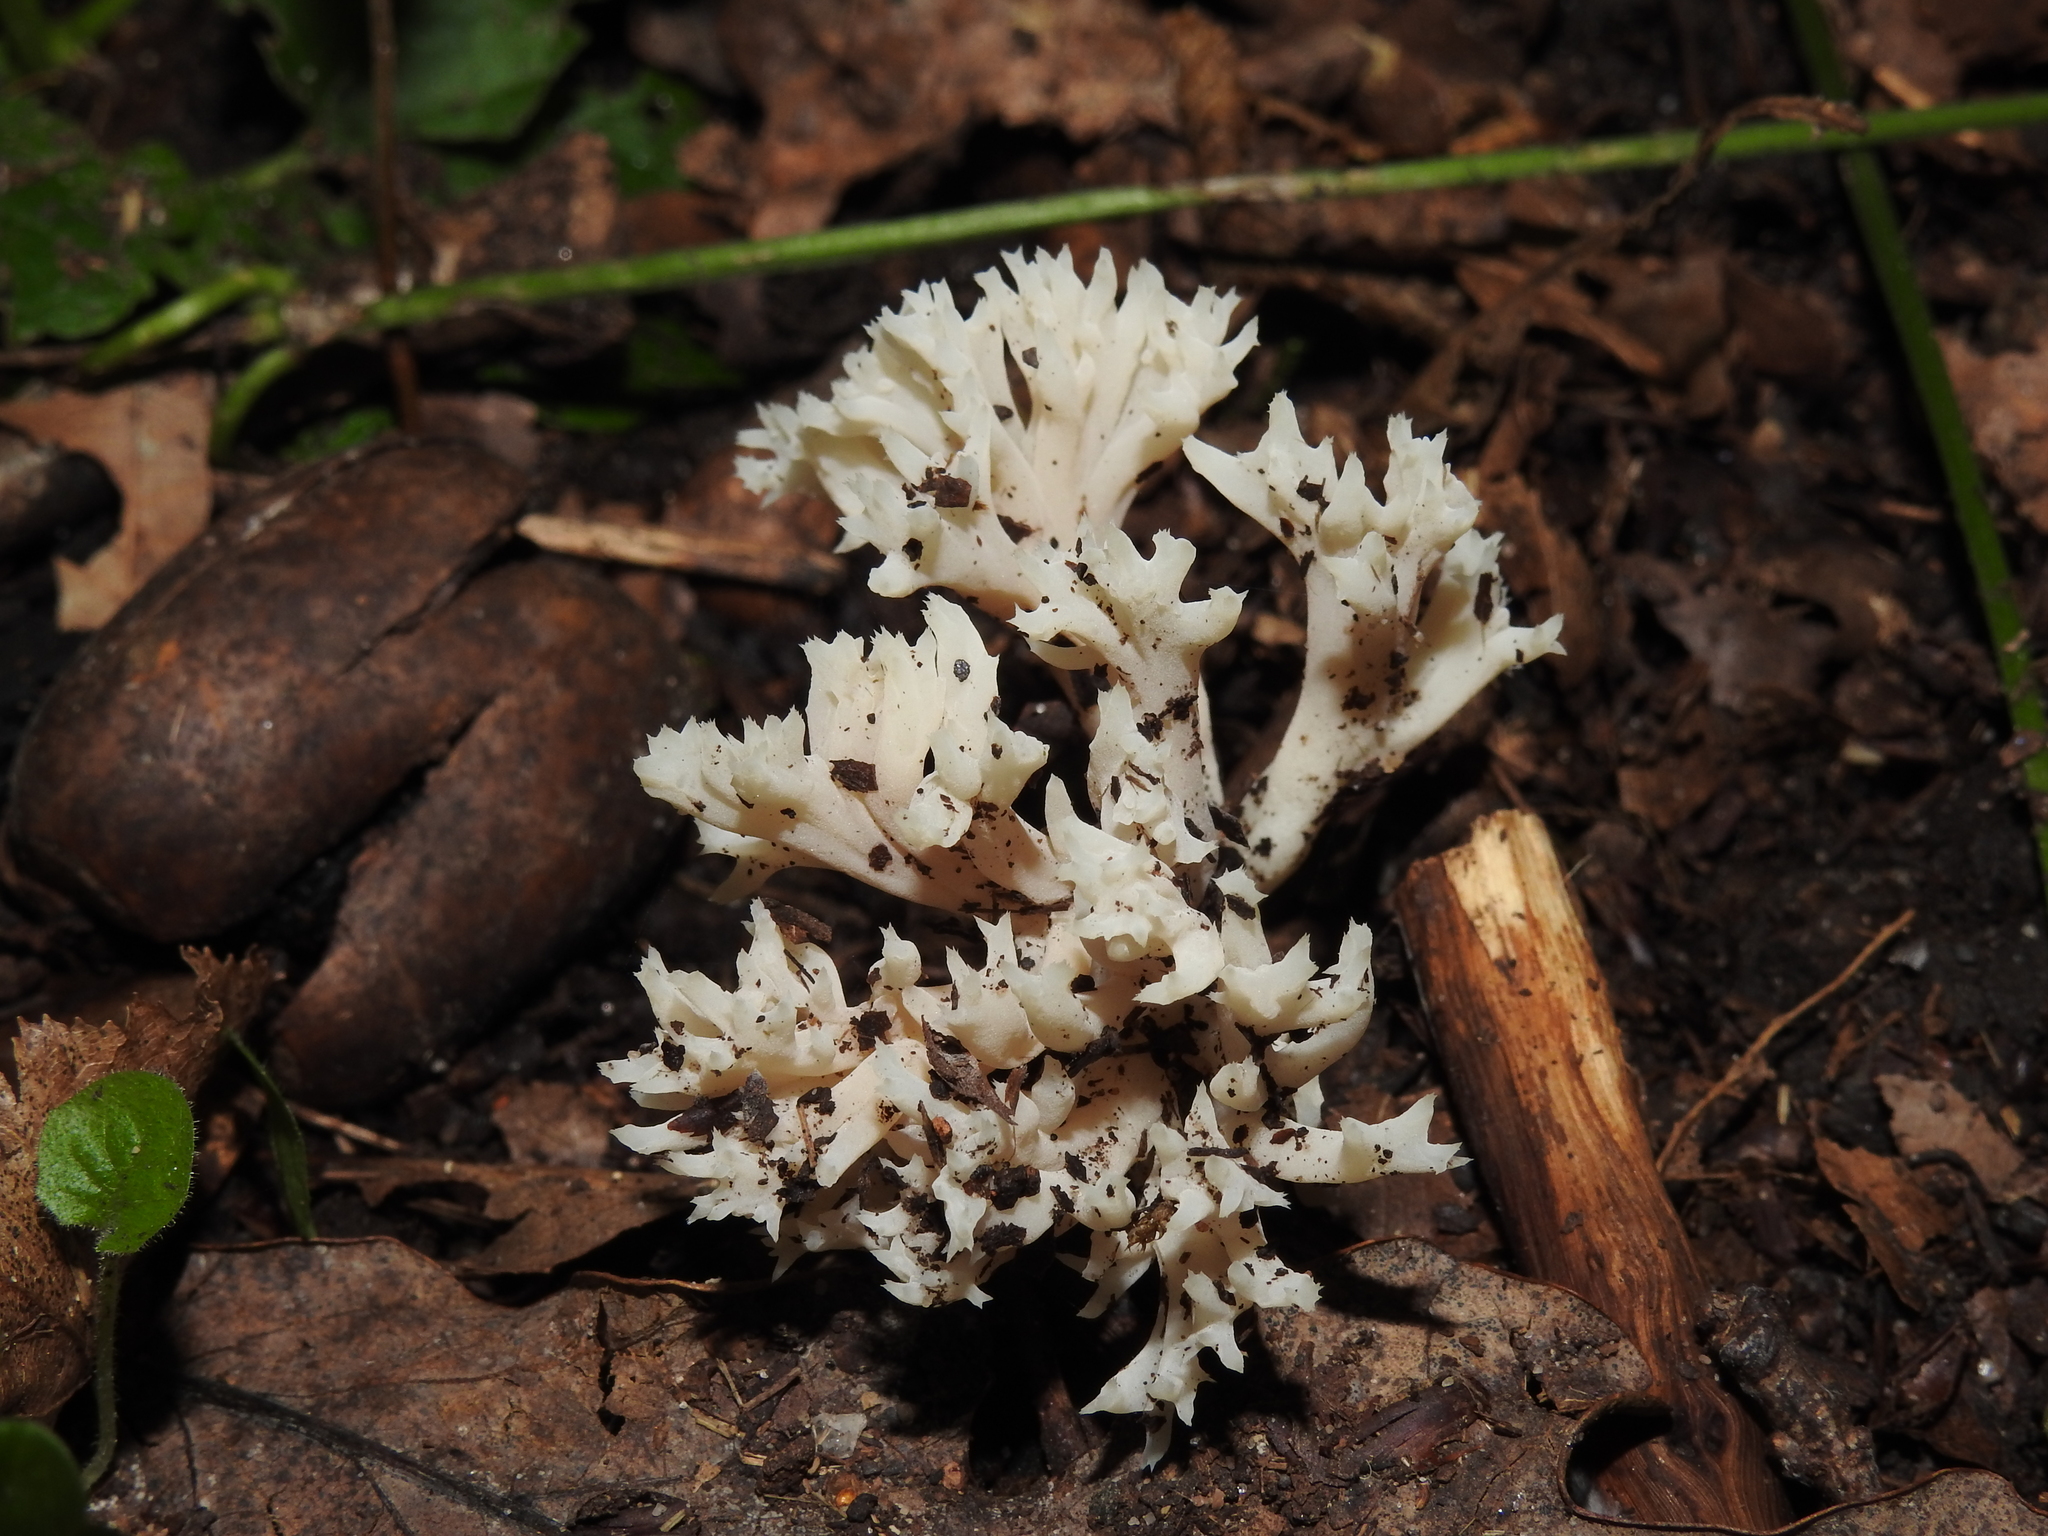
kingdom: Fungi
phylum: Basidiomycota
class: Agaricomycetes
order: Cantharellales
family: Hydnaceae
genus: Clavulina
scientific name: Clavulina coralloides
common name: Crested coral
